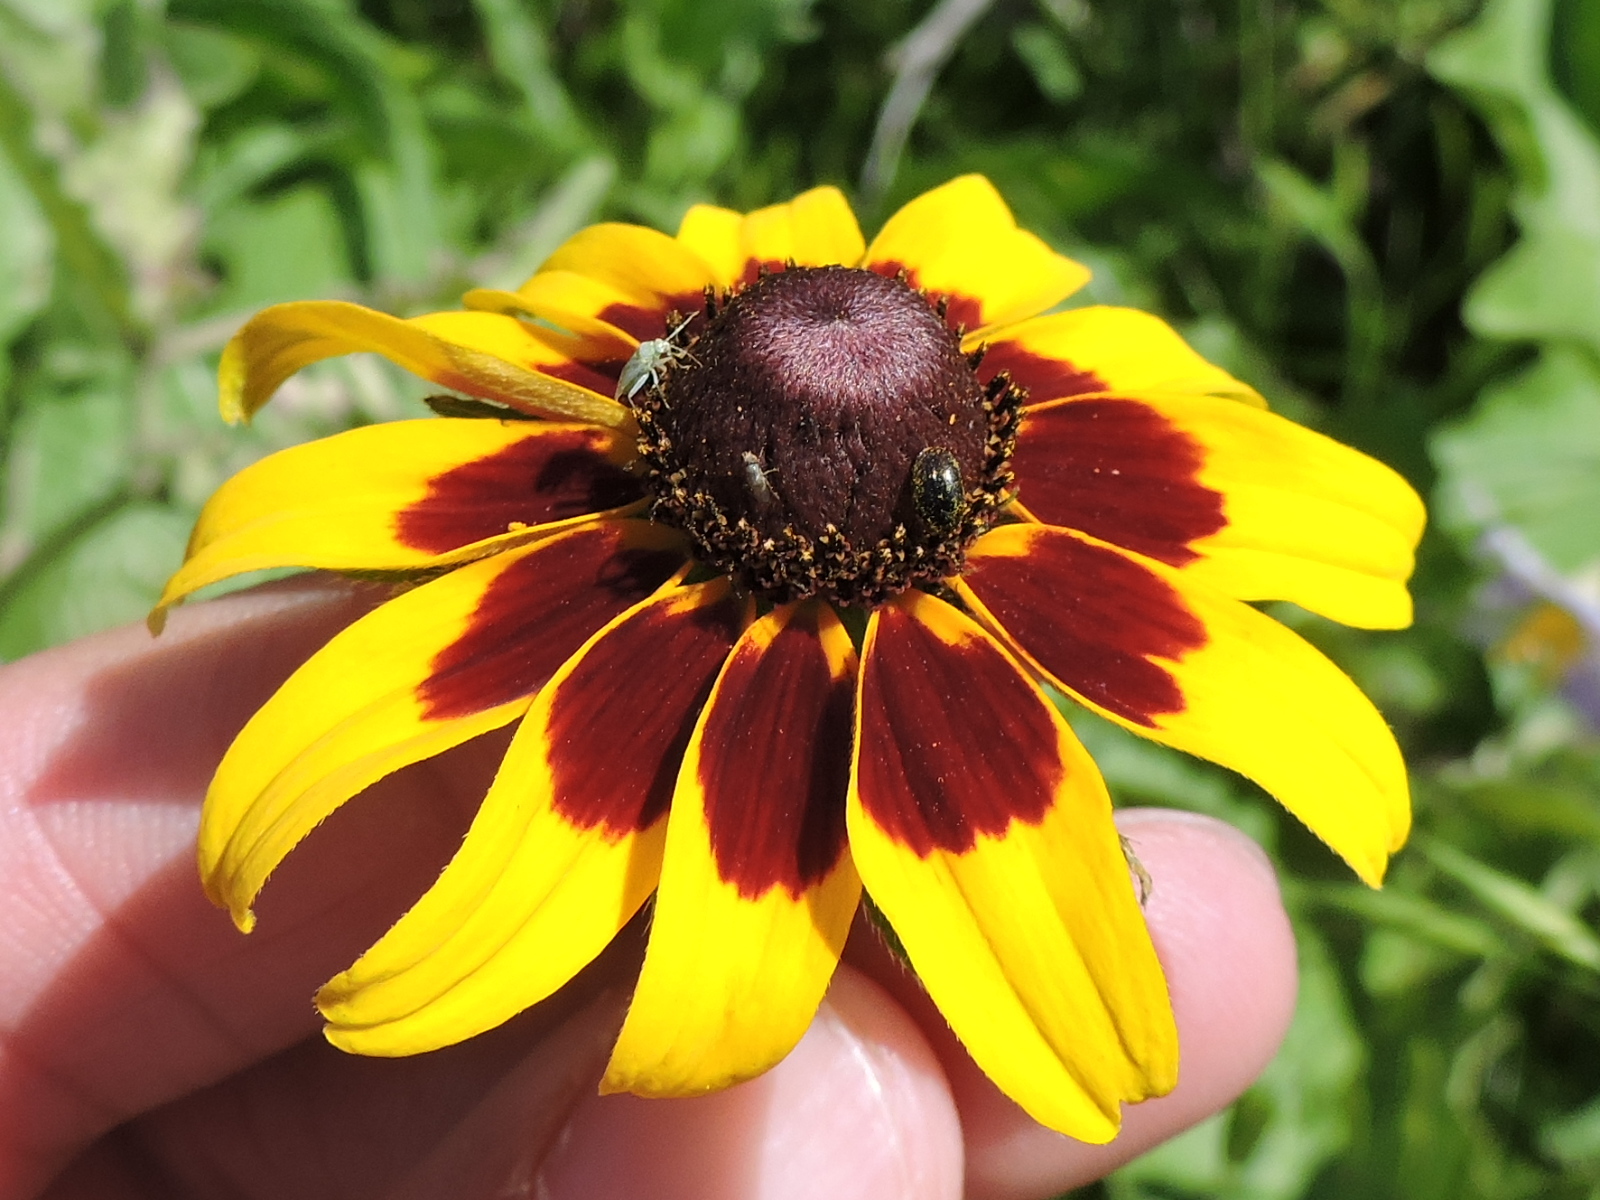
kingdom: Plantae
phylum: Tracheophyta
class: Magnoliopsida
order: Asterales
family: Asteraceae
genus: Rudbeckia
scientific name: Rudbeckia hirta
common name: Black-eyed-susan
